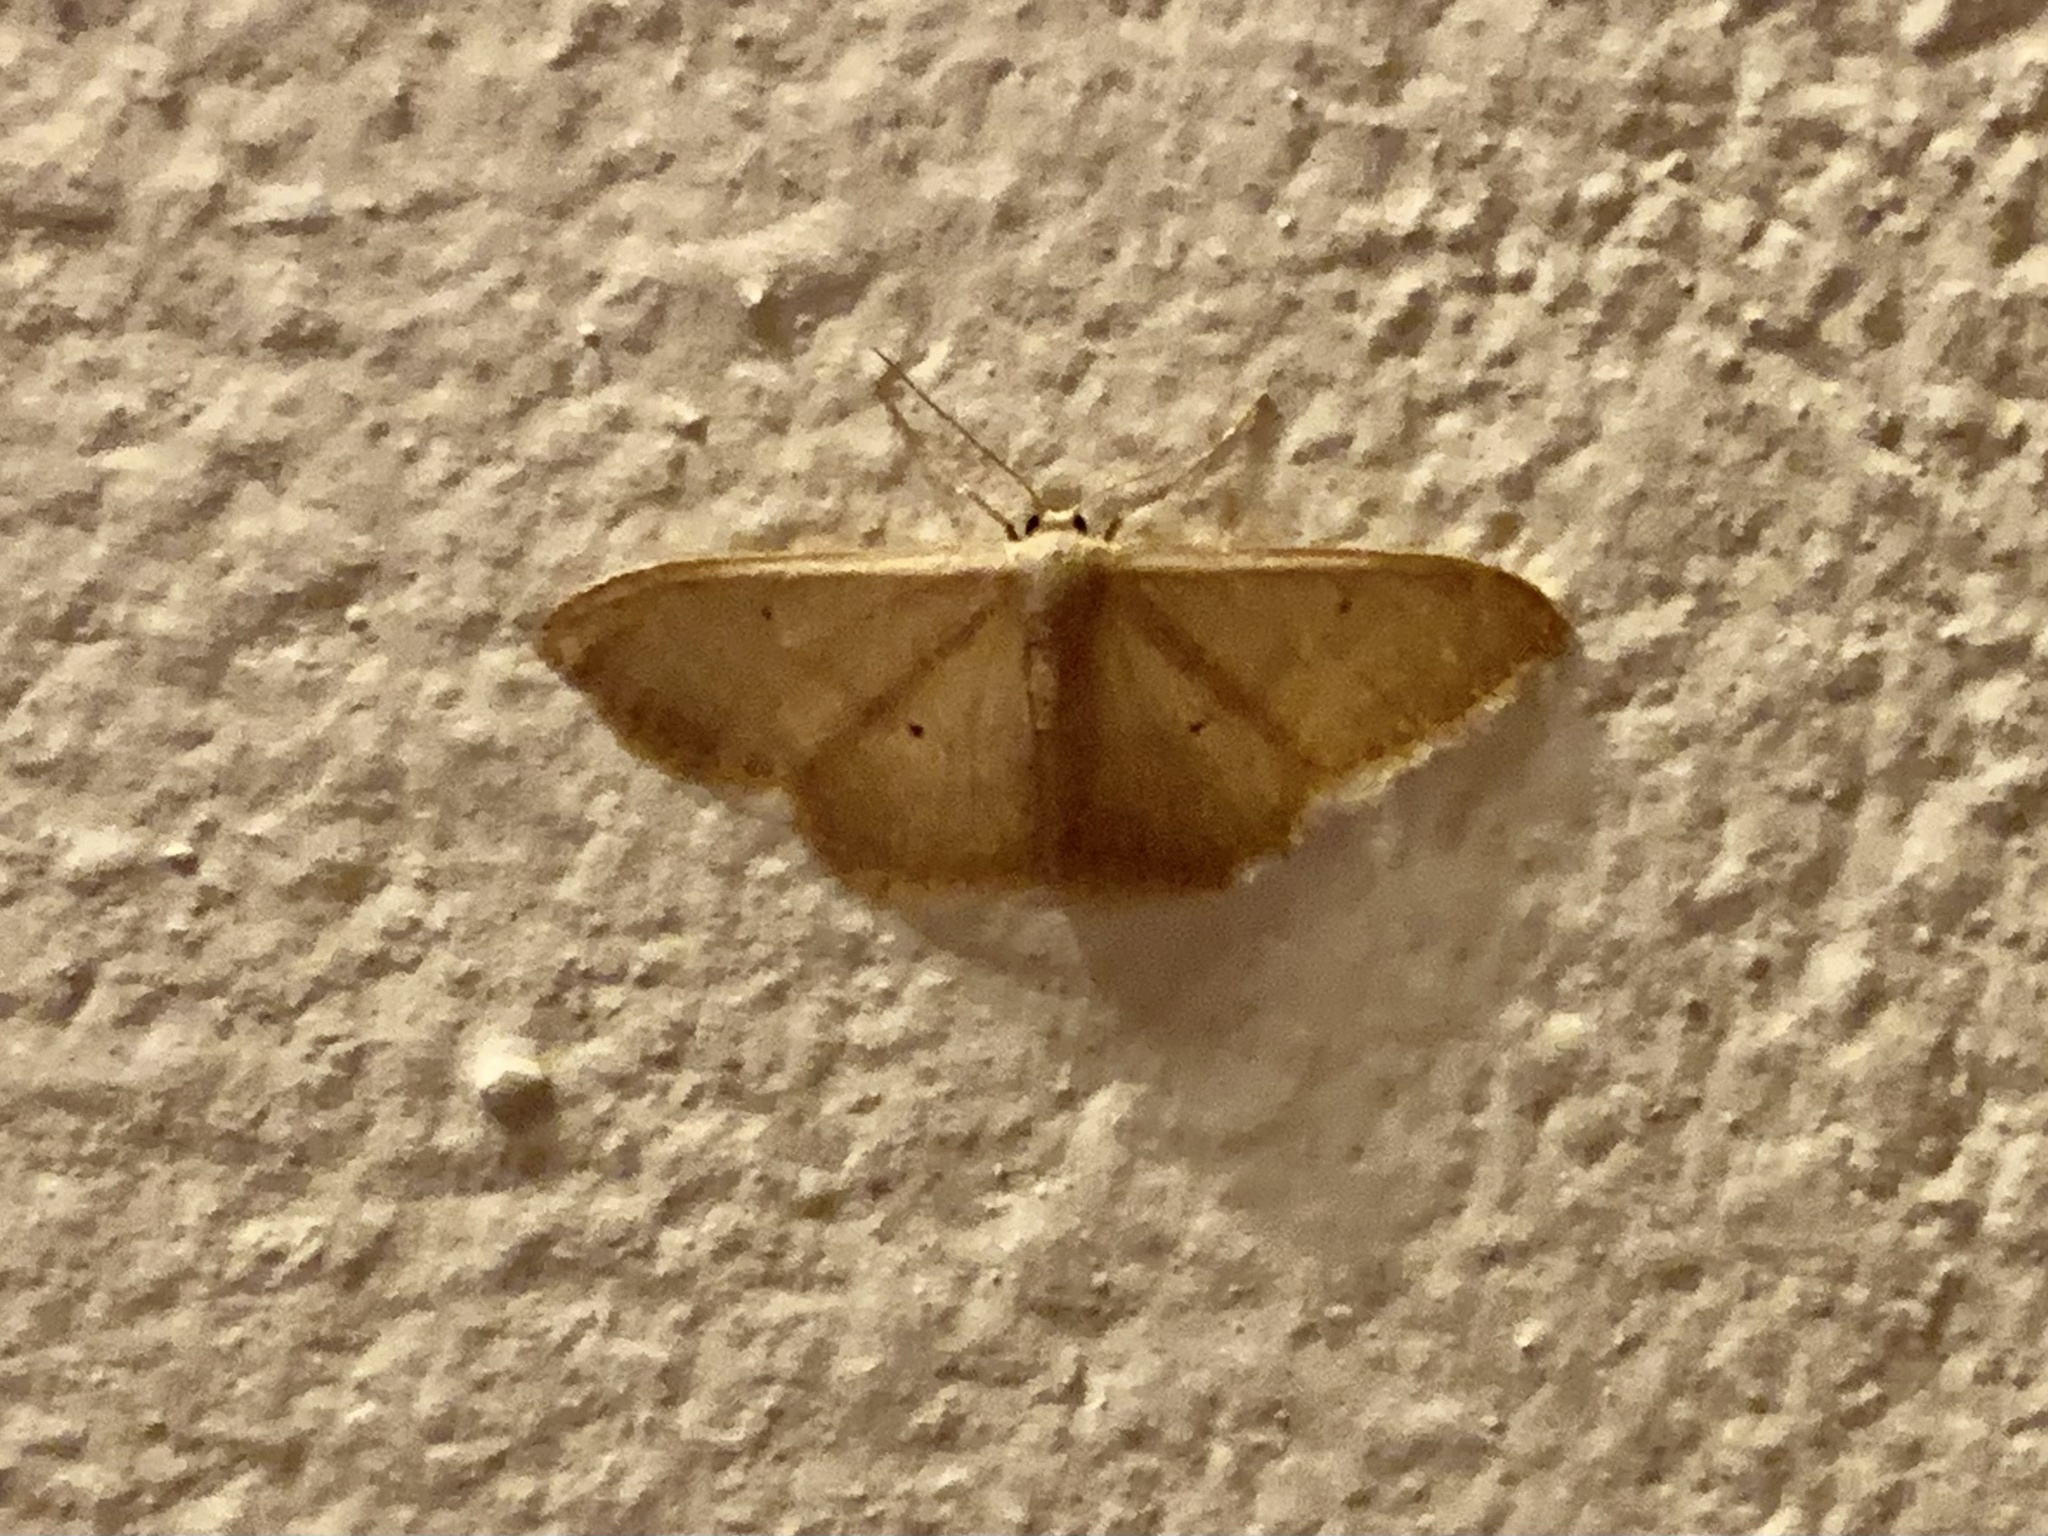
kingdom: Animalia
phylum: Arthropoda
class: Insecta
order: Lepidoptera
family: Geometridae
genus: Idaea
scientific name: Idaea distinctaria
